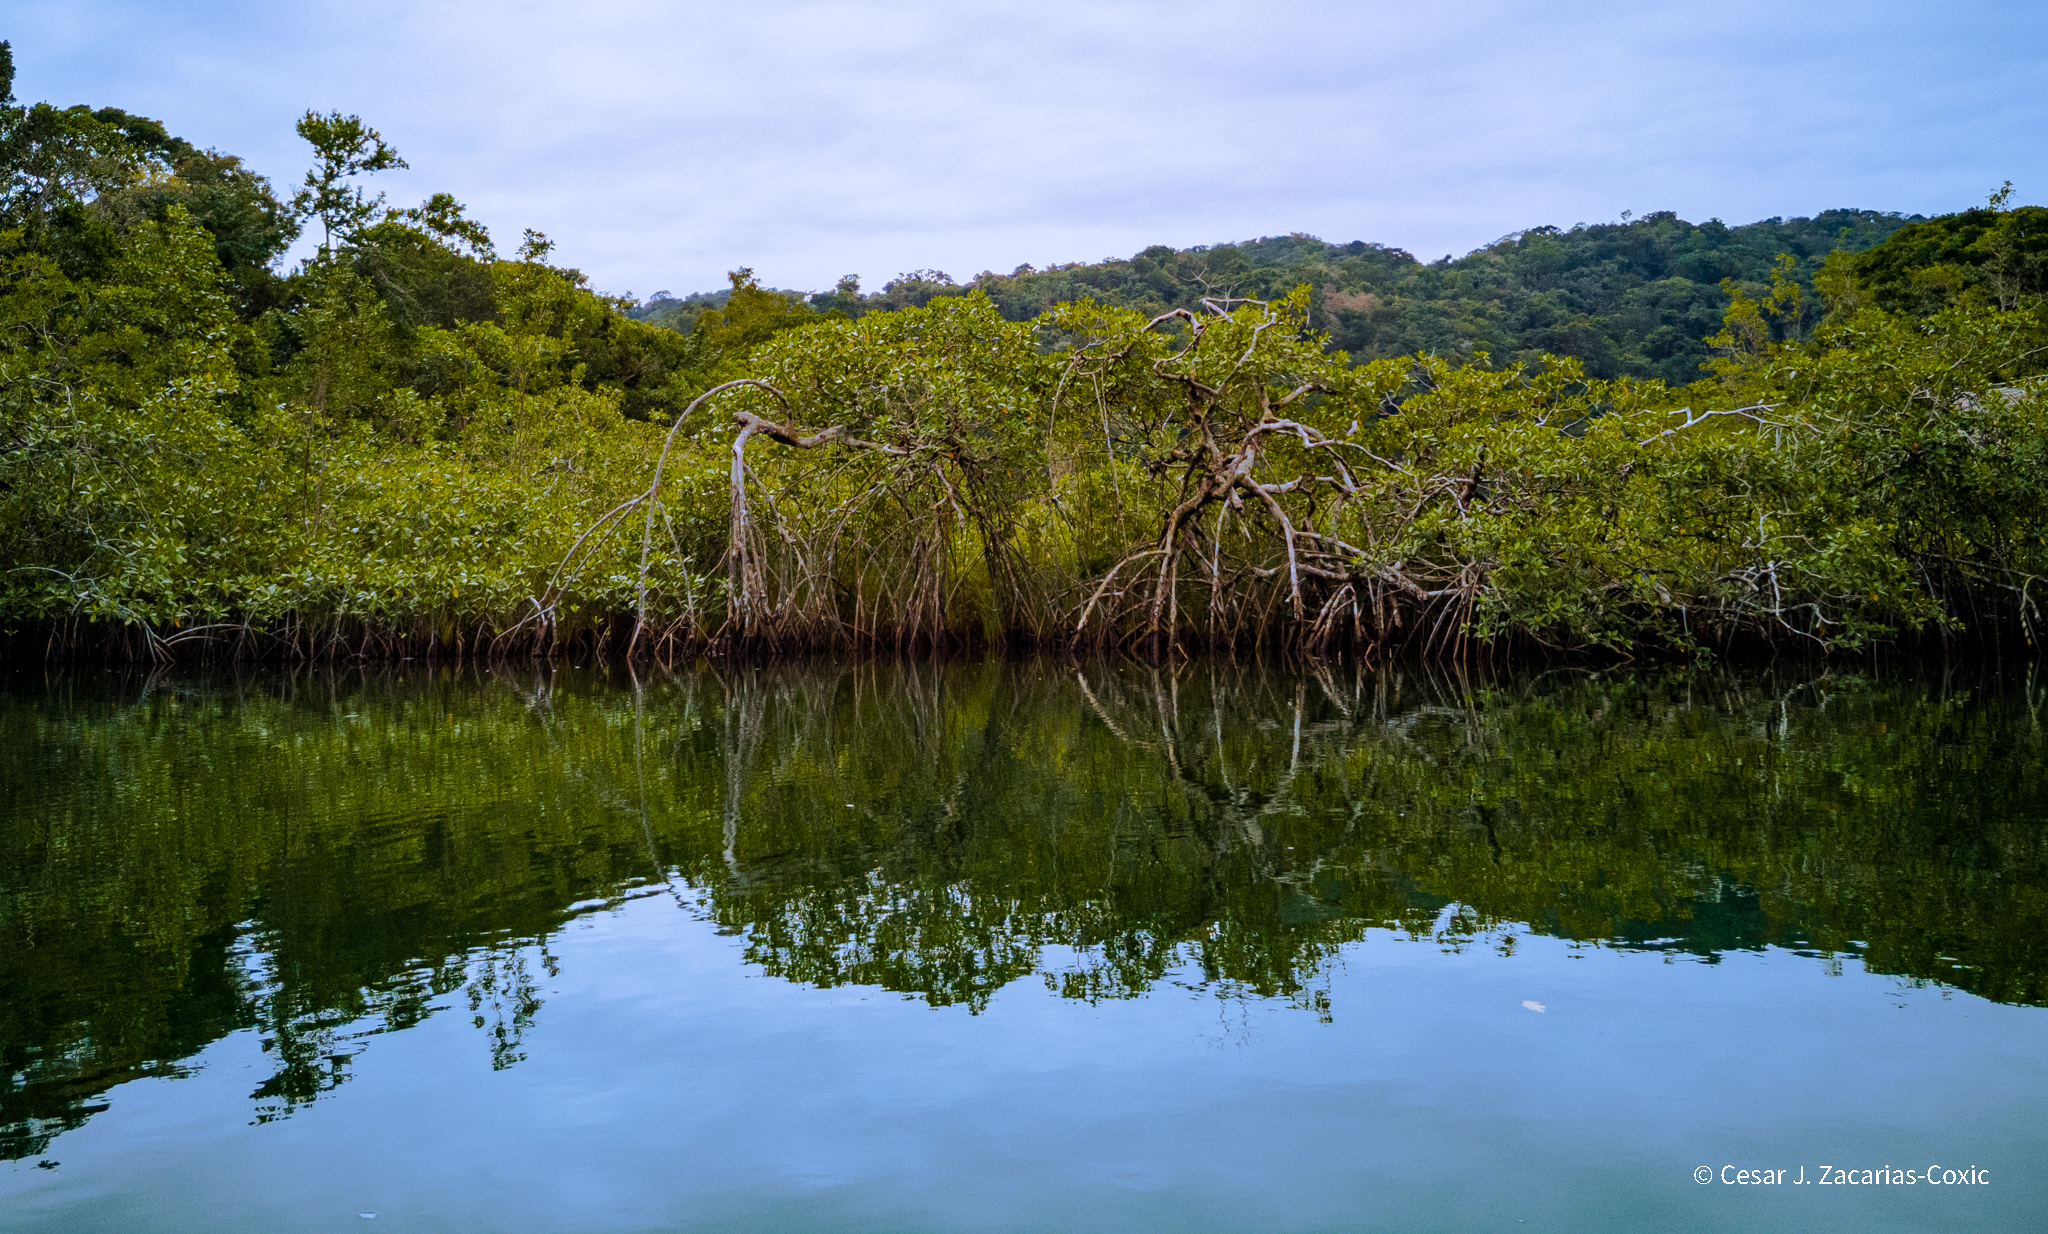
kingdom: Plantae
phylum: Tracheophyta
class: Magnoliopsida
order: Malpighiales
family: Rhizophoraceae
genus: Rhizophora
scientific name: Rhizophora mangle
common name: Red mangrove
